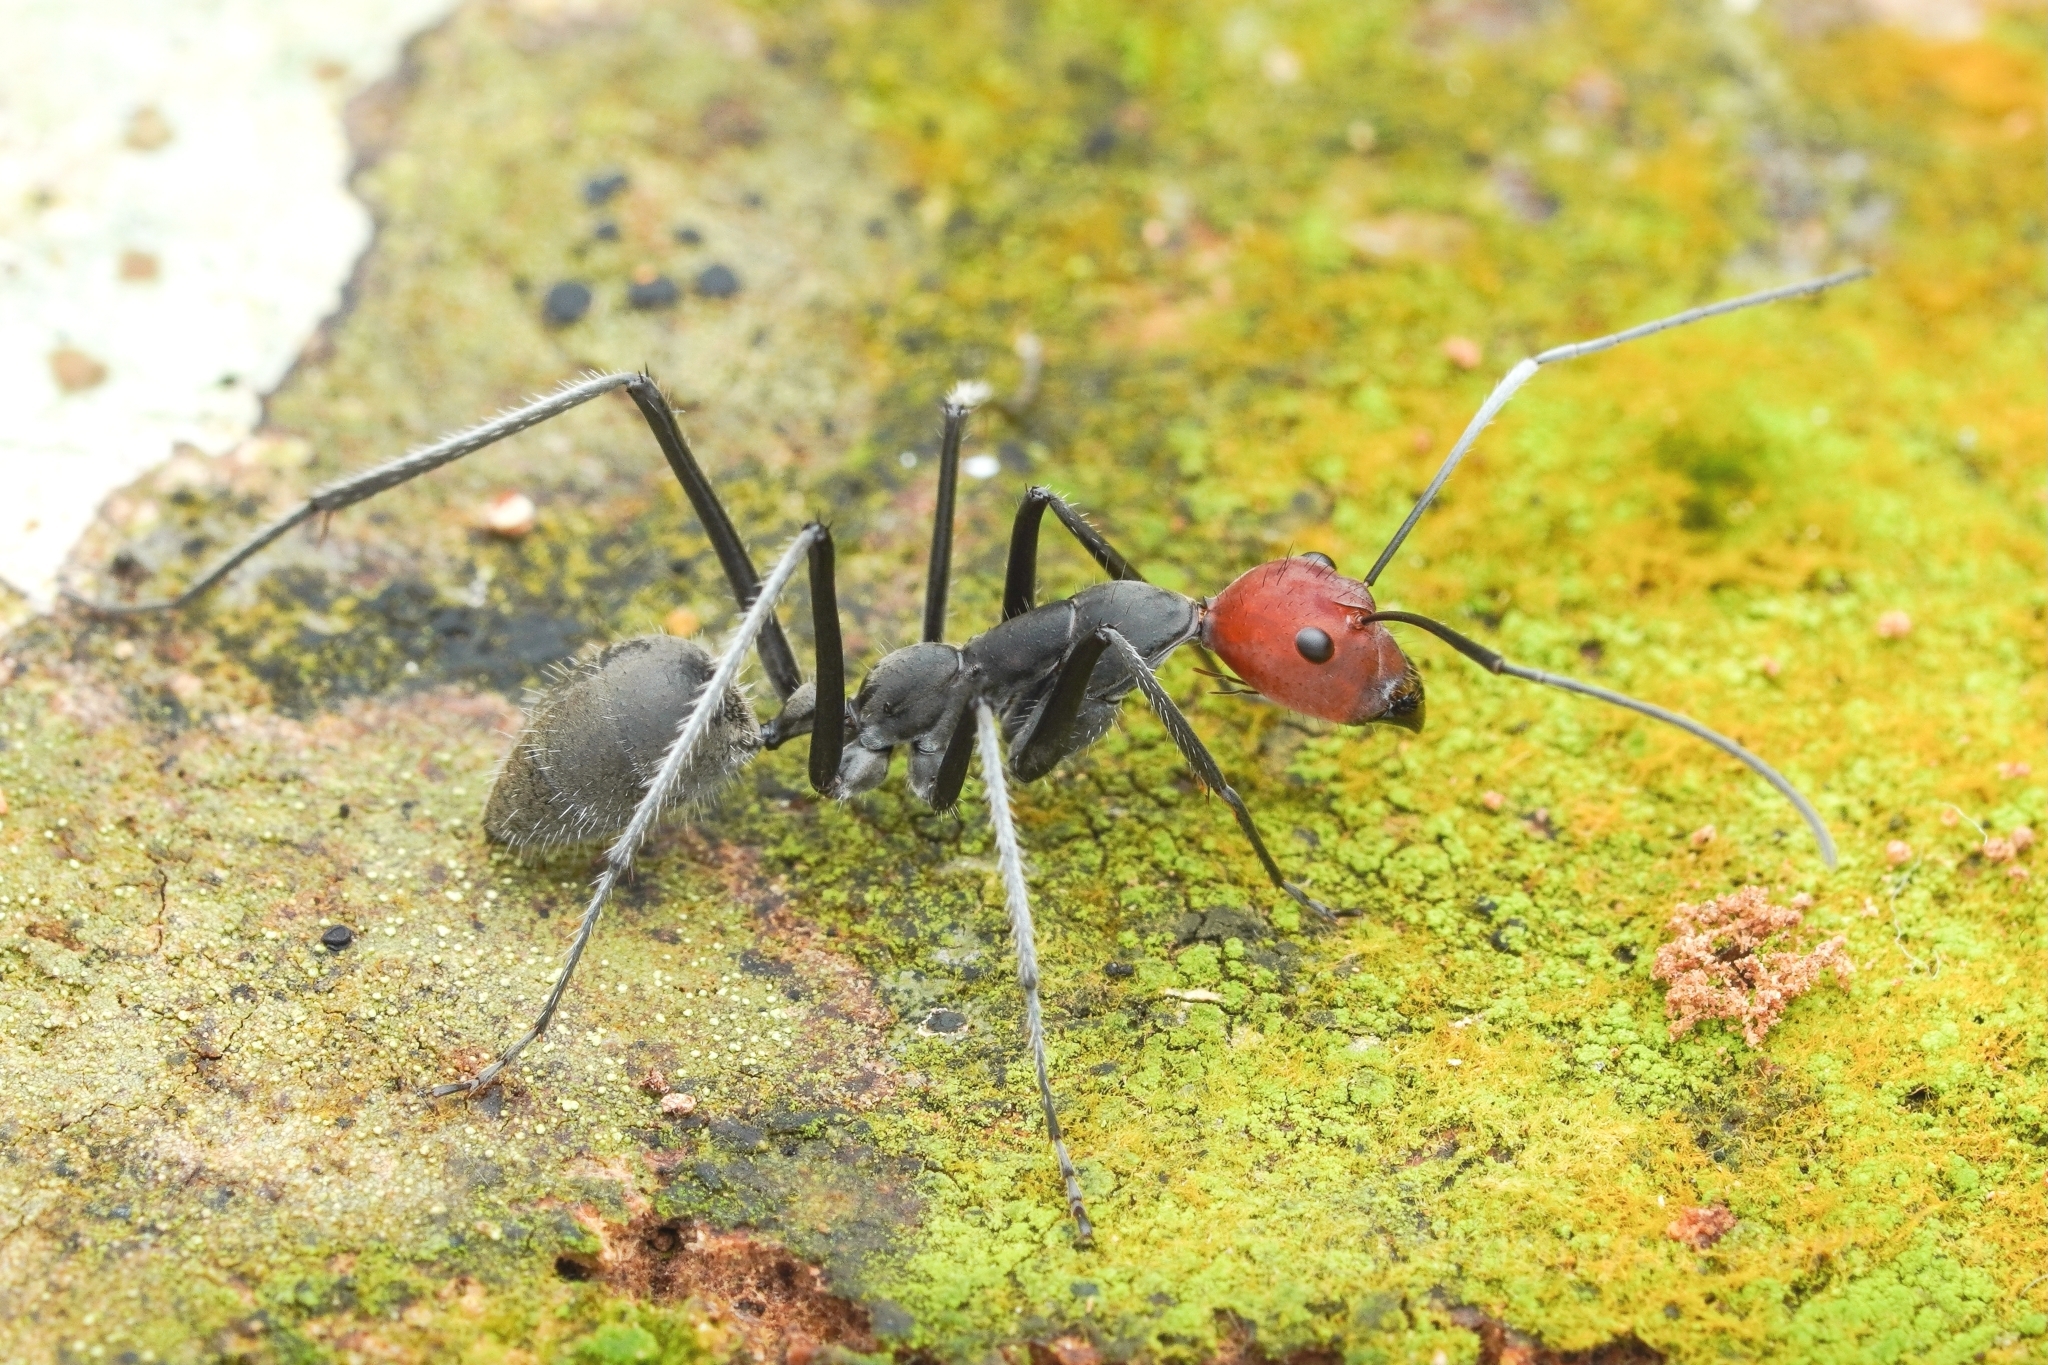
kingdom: Animalia
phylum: Arthropoda
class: Insecta
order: Hymenoptera
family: Formicidae
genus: Camponotus
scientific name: Camponotus singularis
